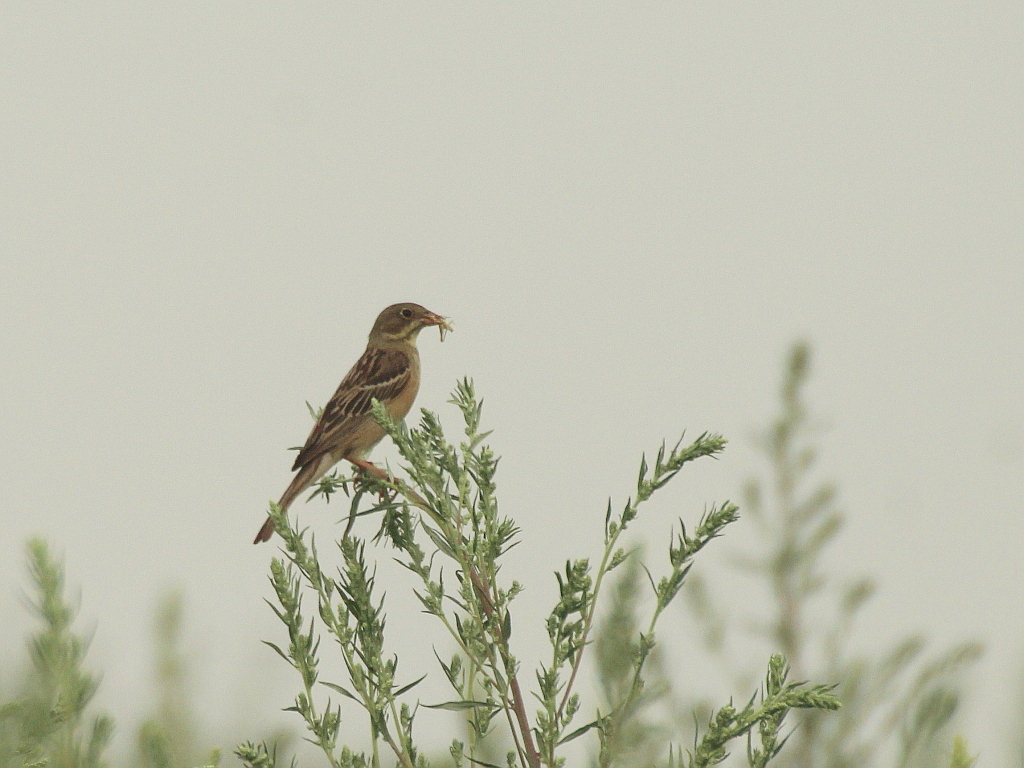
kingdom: Animalia
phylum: Chordata
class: Aves
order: Passeriformes
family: Emberizidae
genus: Emberiza
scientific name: Emberiza hortulana
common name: Ortolan bunting
